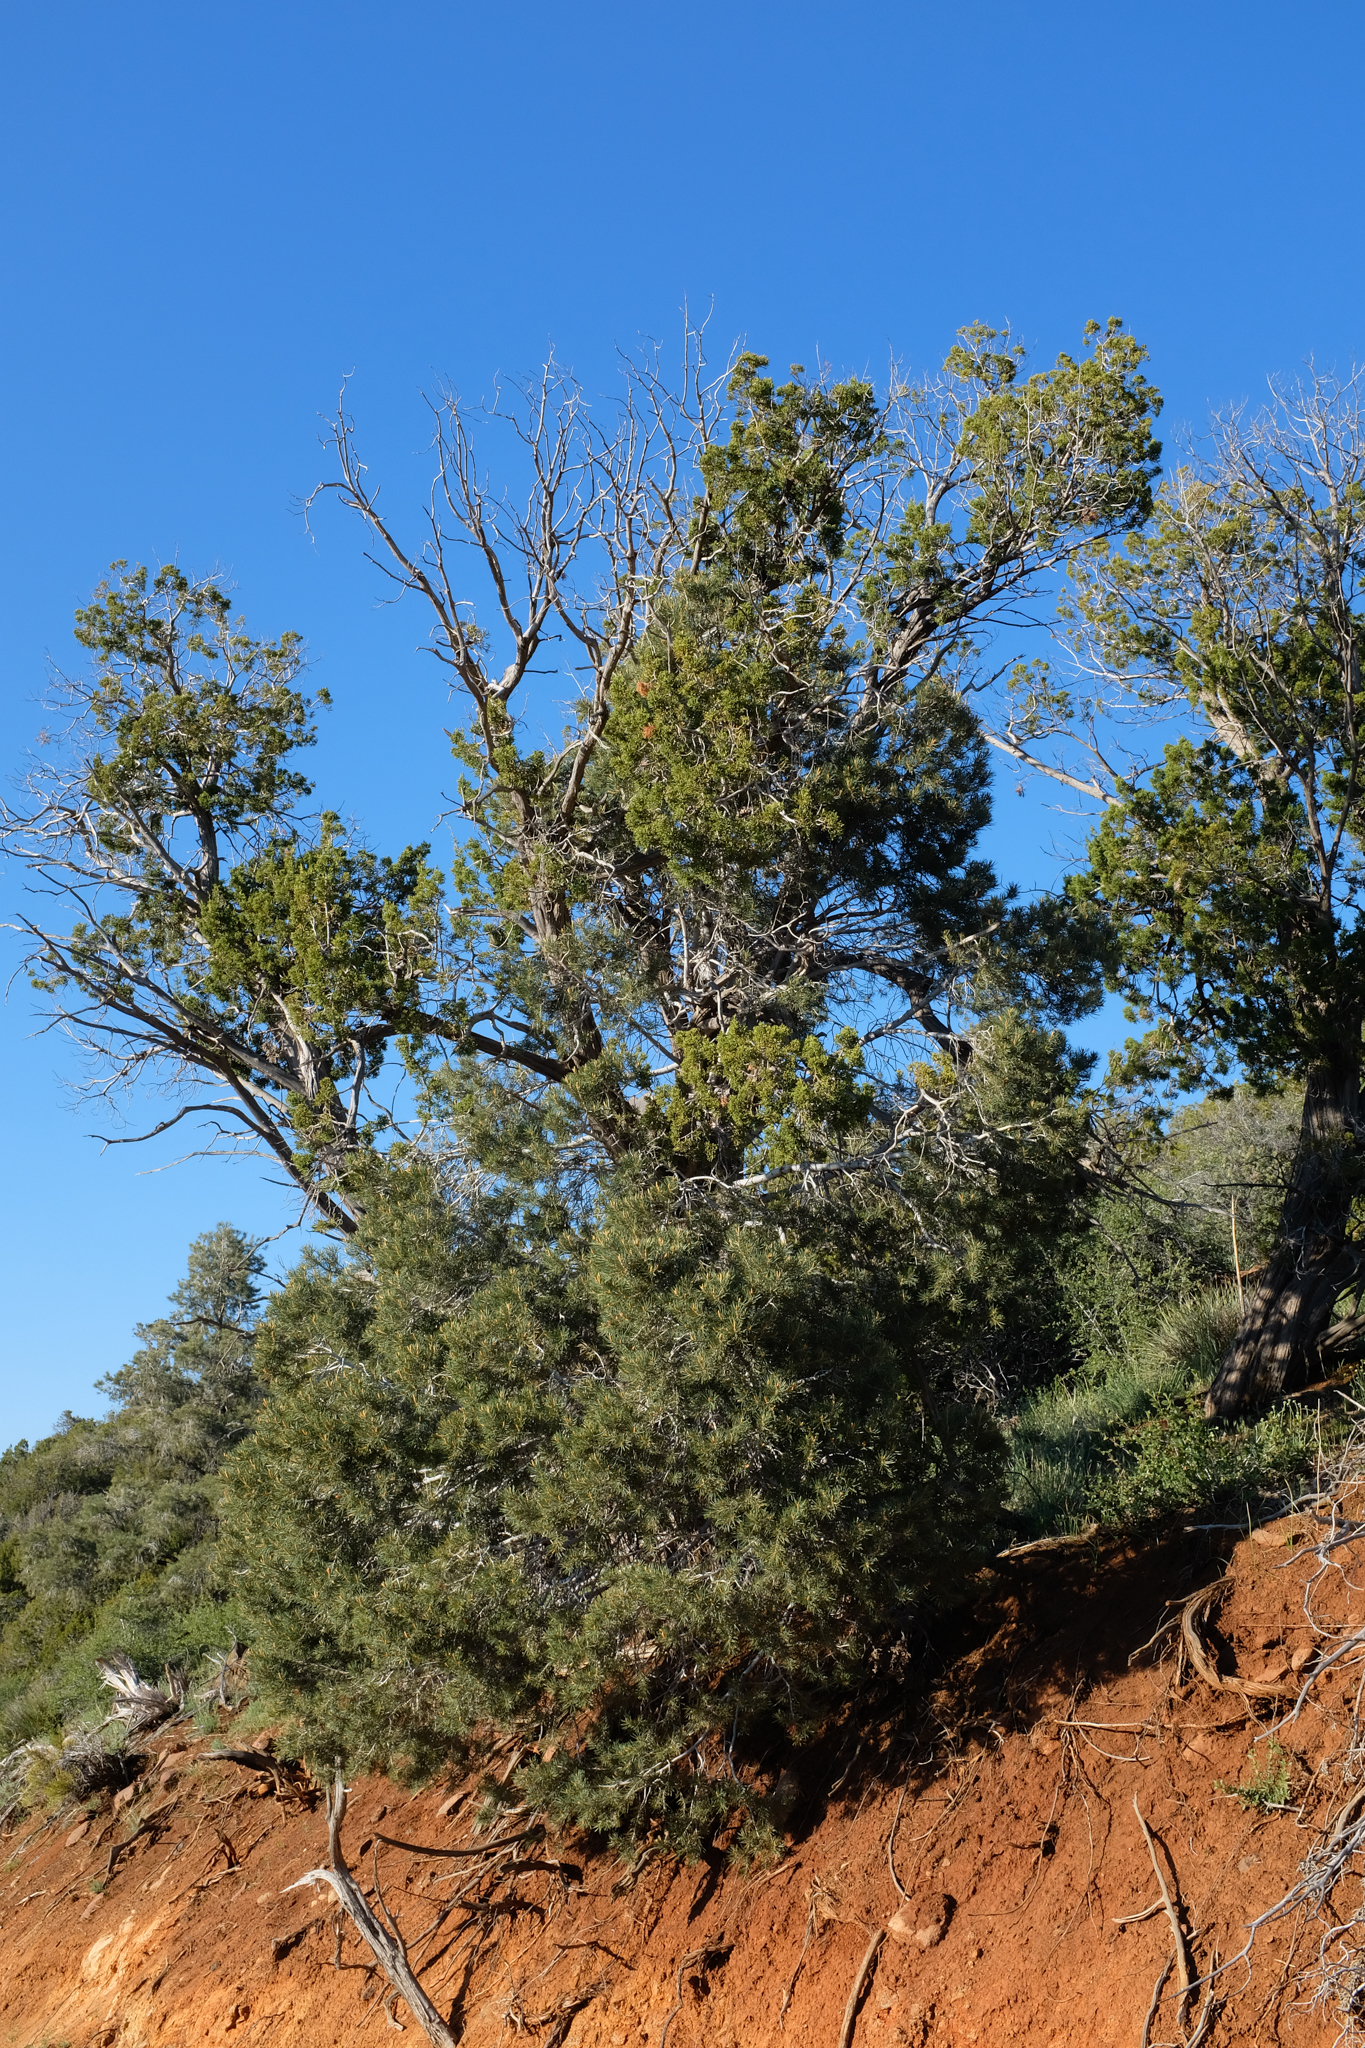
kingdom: Plantae
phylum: Tracheophyta
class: Pinopsida
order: Pinales
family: Pinaceae
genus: Pinus
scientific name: Pinus monophylla
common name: One-leaved nut pine
